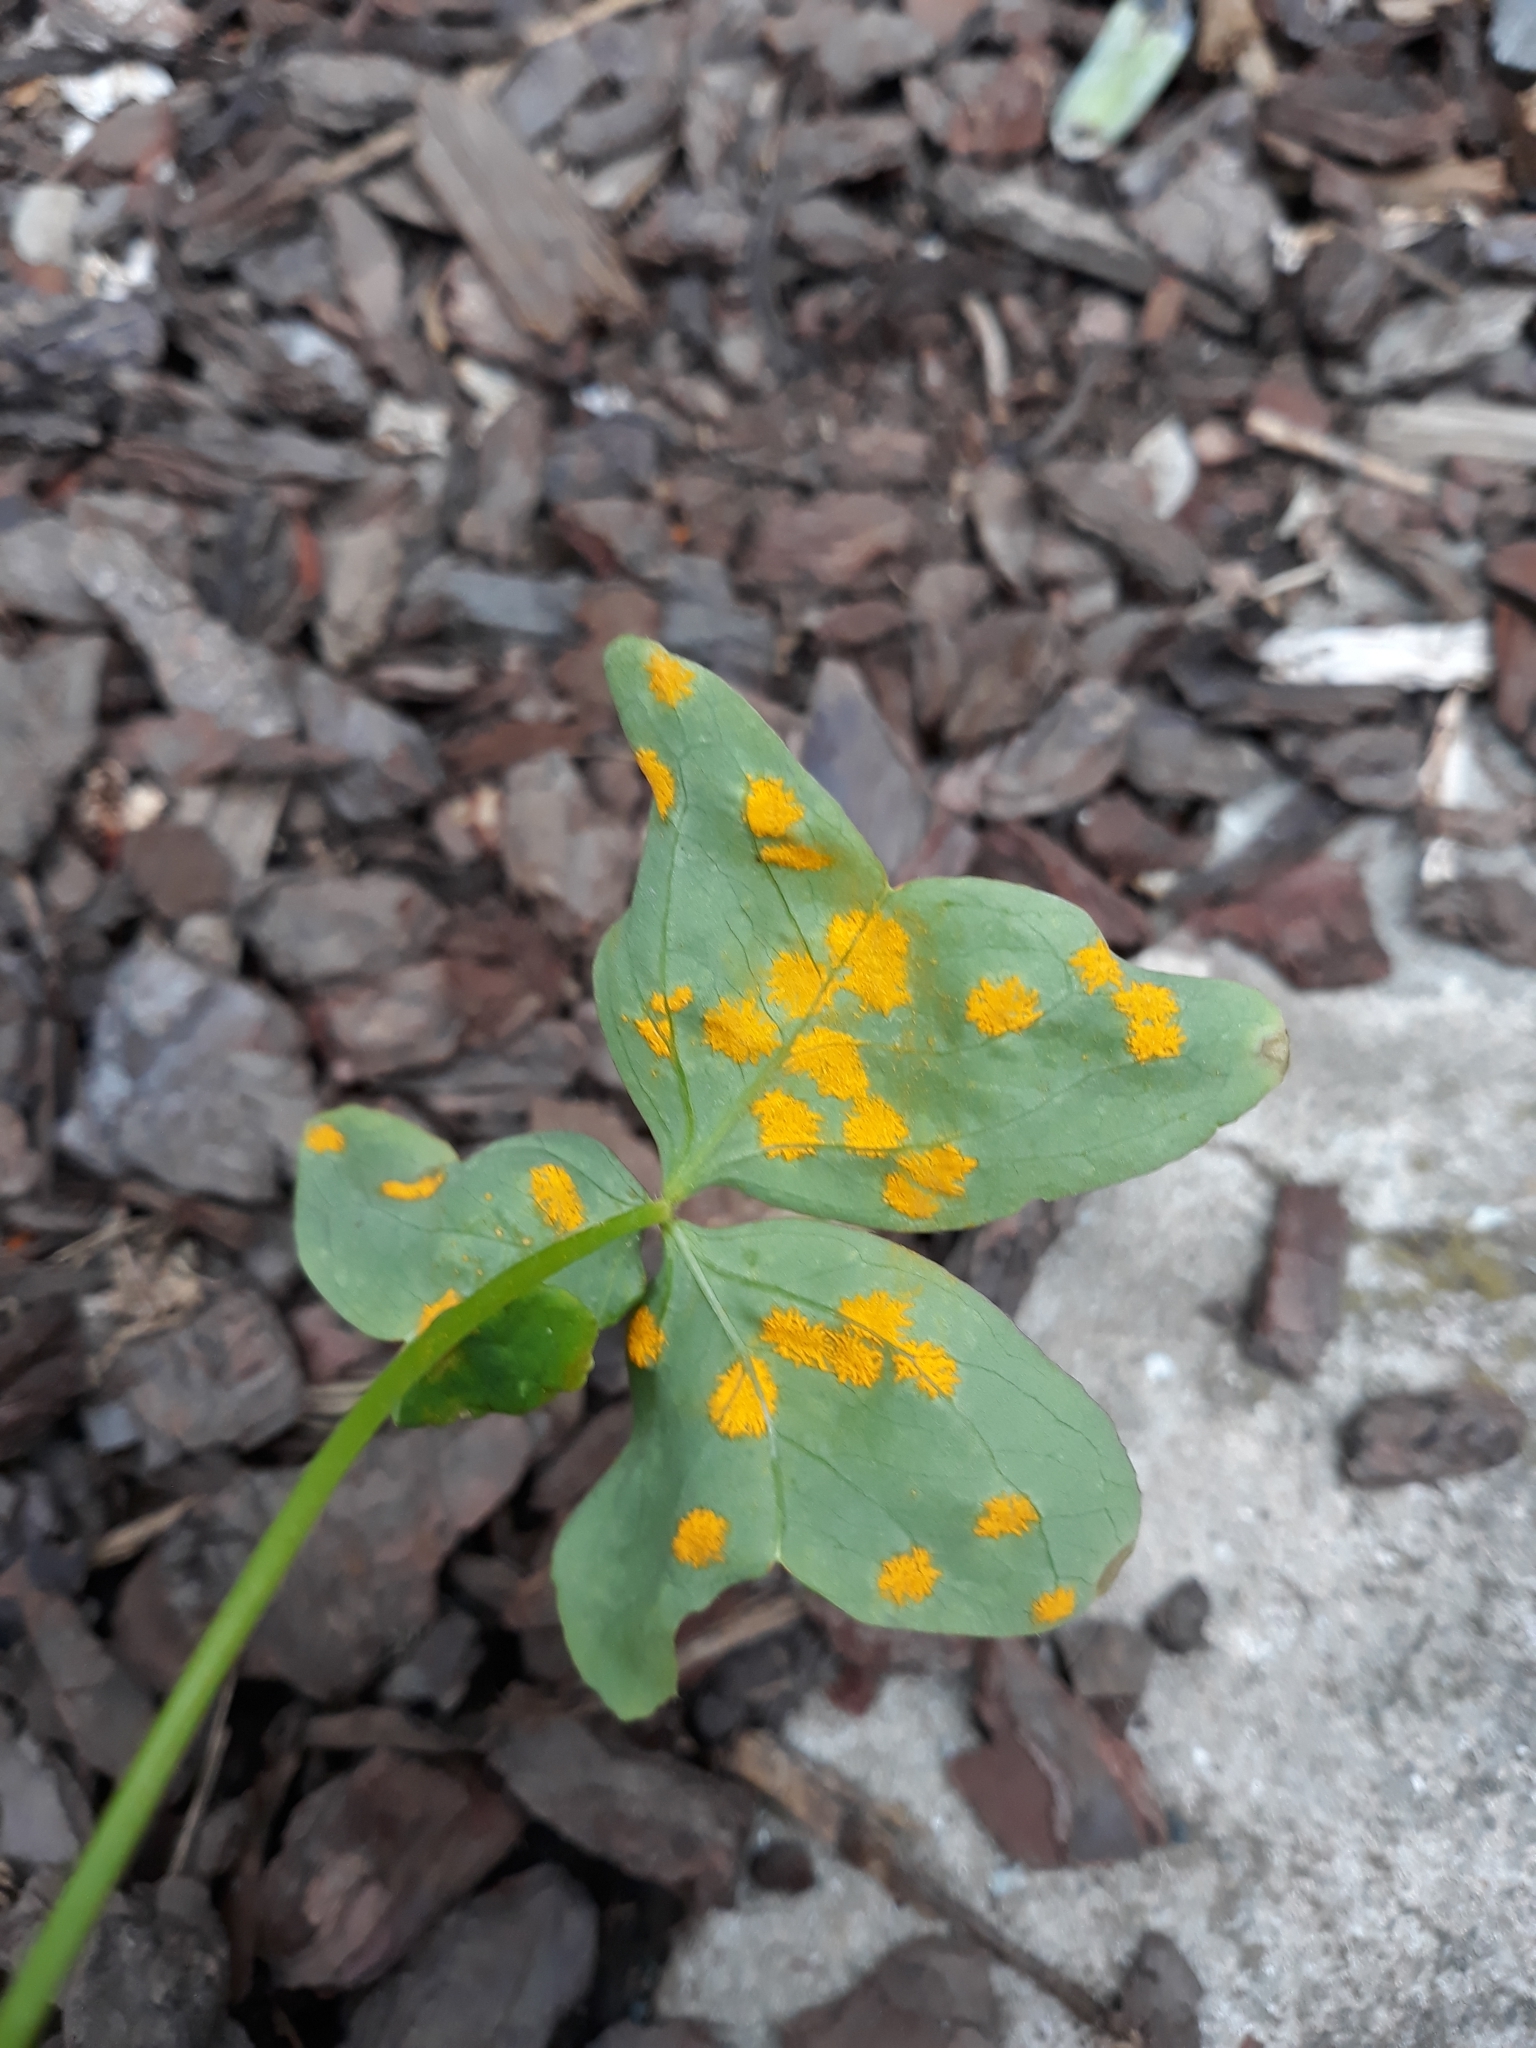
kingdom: Fungi
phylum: Basidiomycota
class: Pucciniomycetes
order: Pucciniales
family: Pucciniaceae
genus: Puccinia
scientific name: Puccinia oxalidis
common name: Oxalis rust
